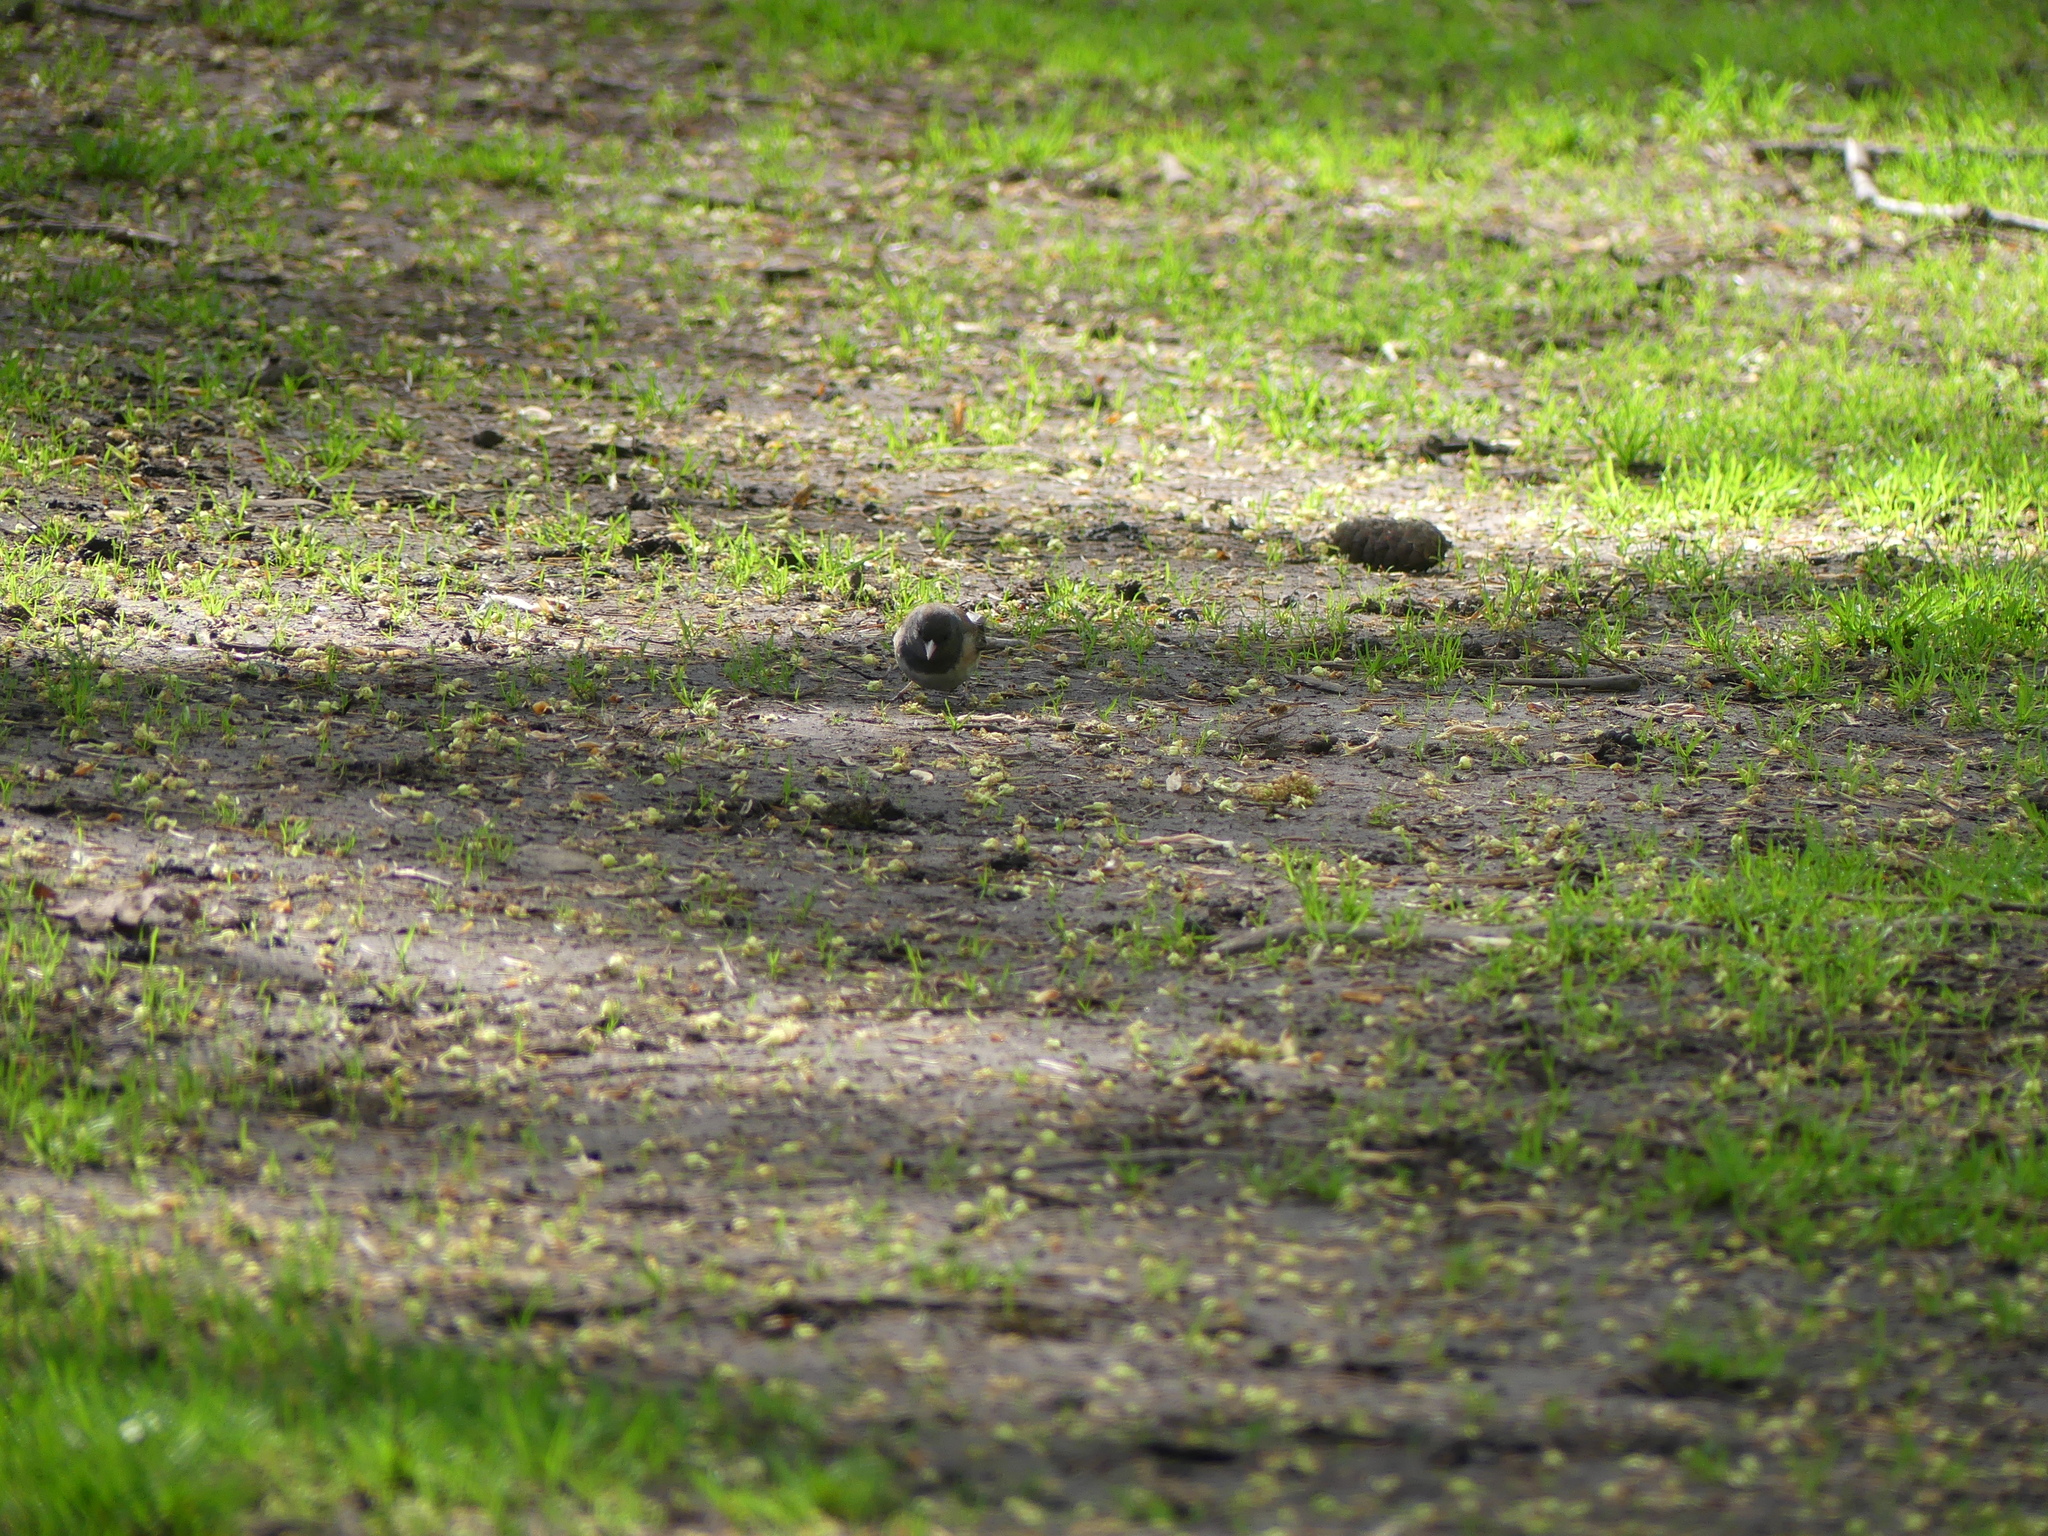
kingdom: Animalia
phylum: Chordata
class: Aves
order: Passeriformes
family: Passerellidae
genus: Junco
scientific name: Junco hyemalis
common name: Dark-eyed junco
